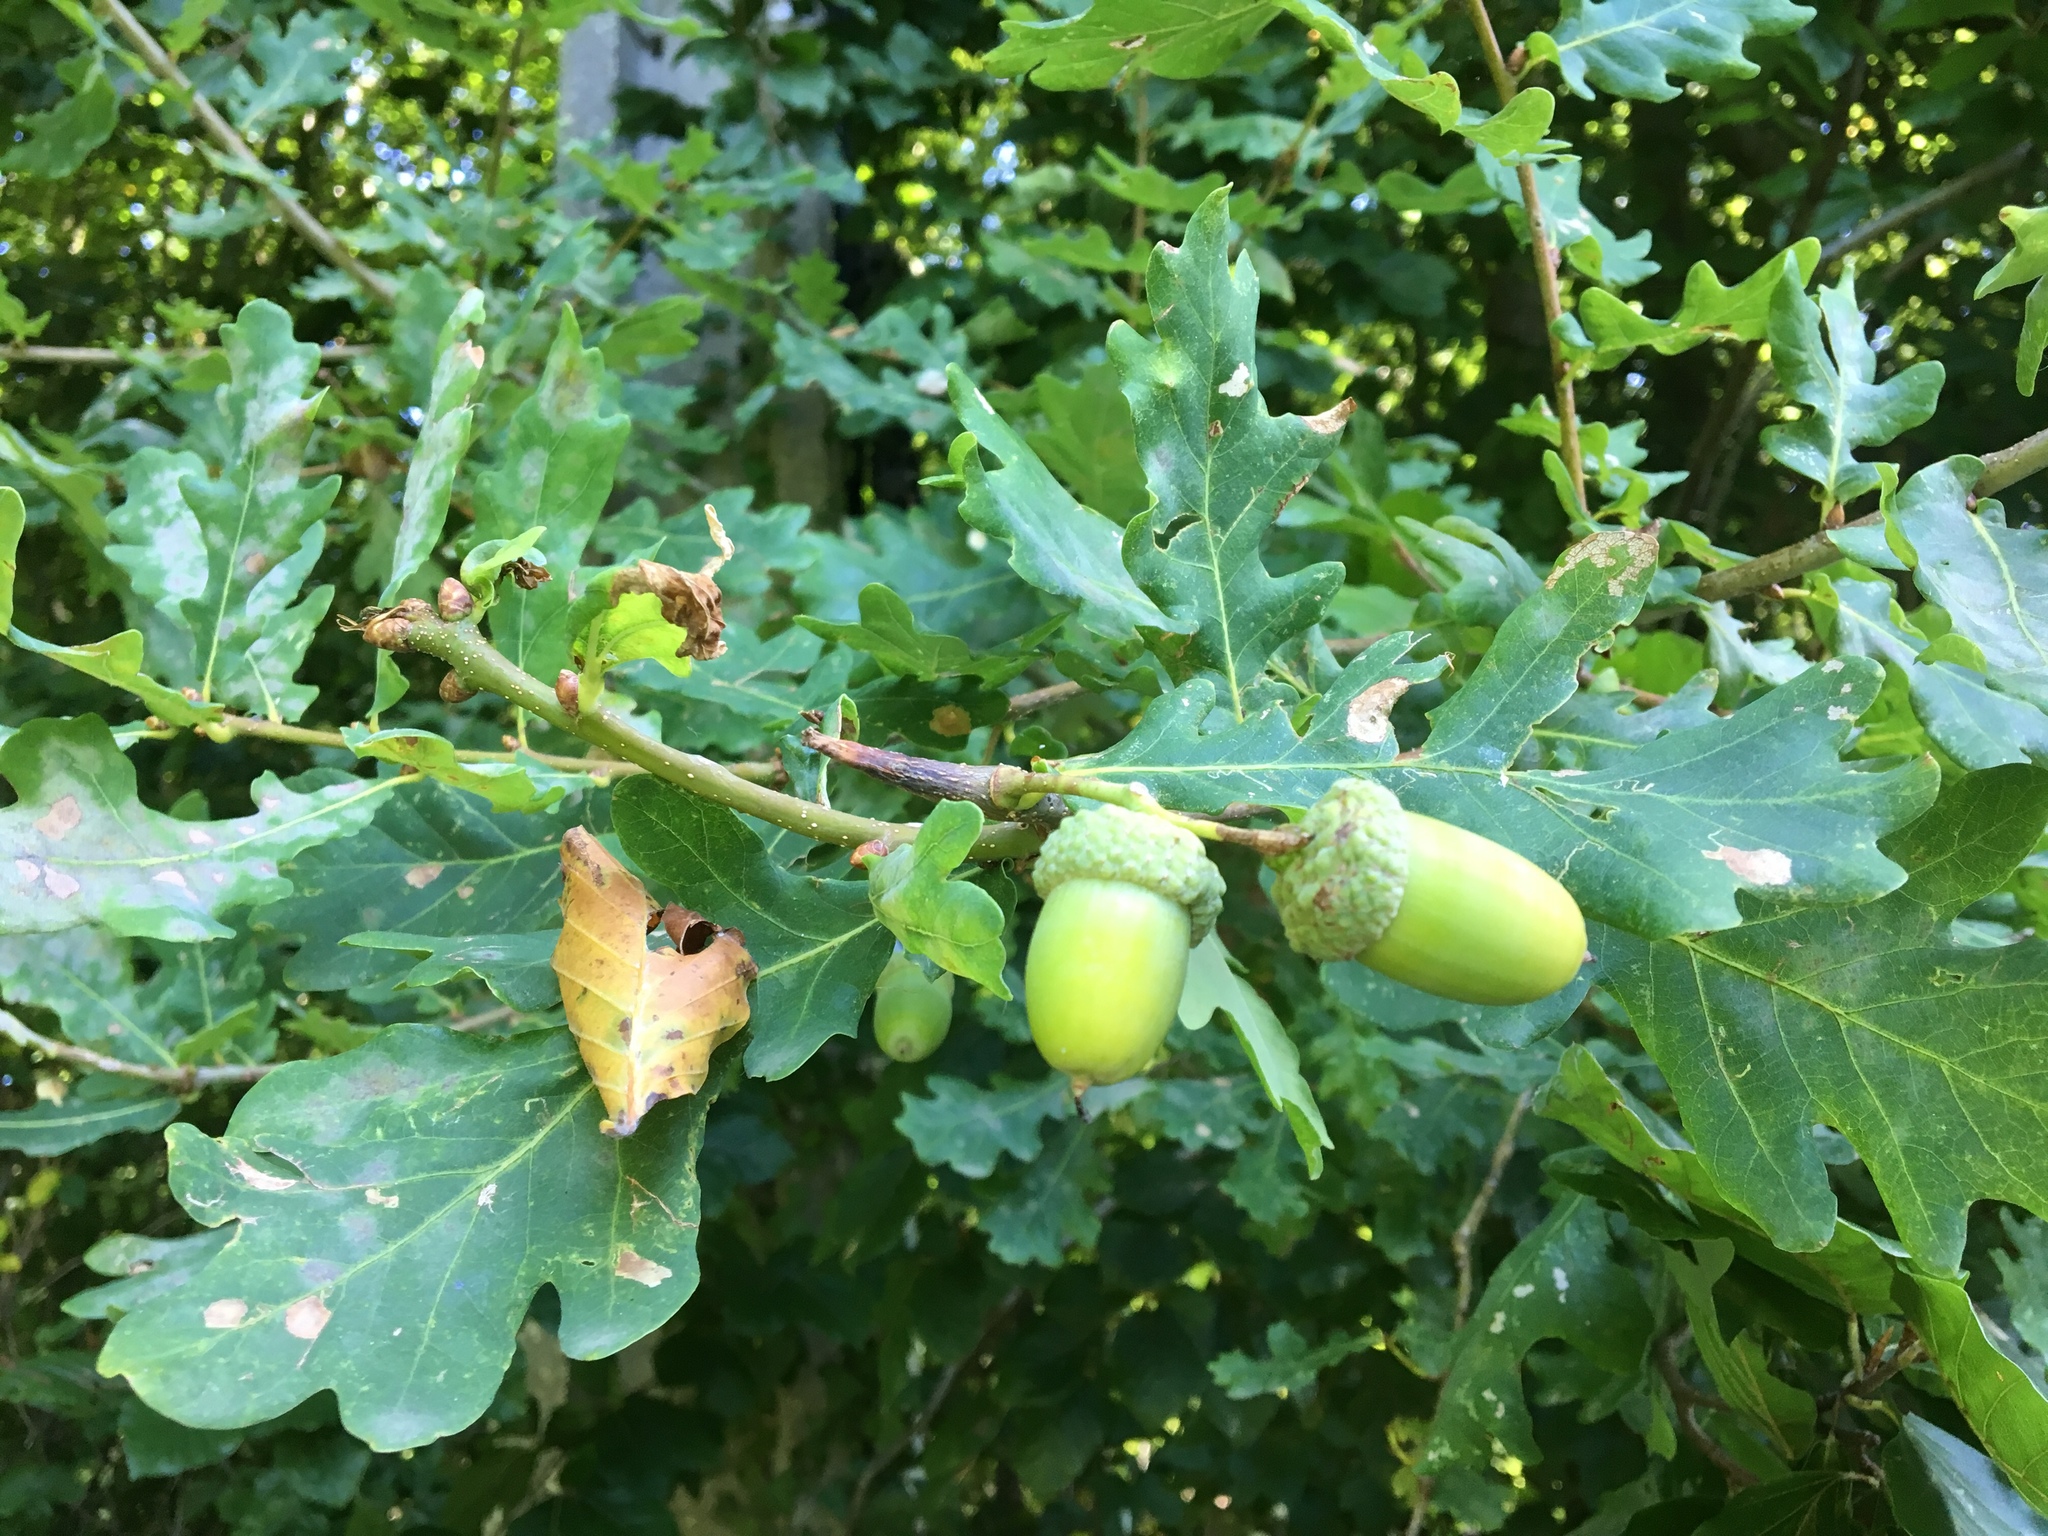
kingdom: Plantae
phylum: Tracheophyta
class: Magnoliopsida
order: Fagales
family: Fagaceae
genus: Quercus
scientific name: Quercus robur
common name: Pedunculate oak
